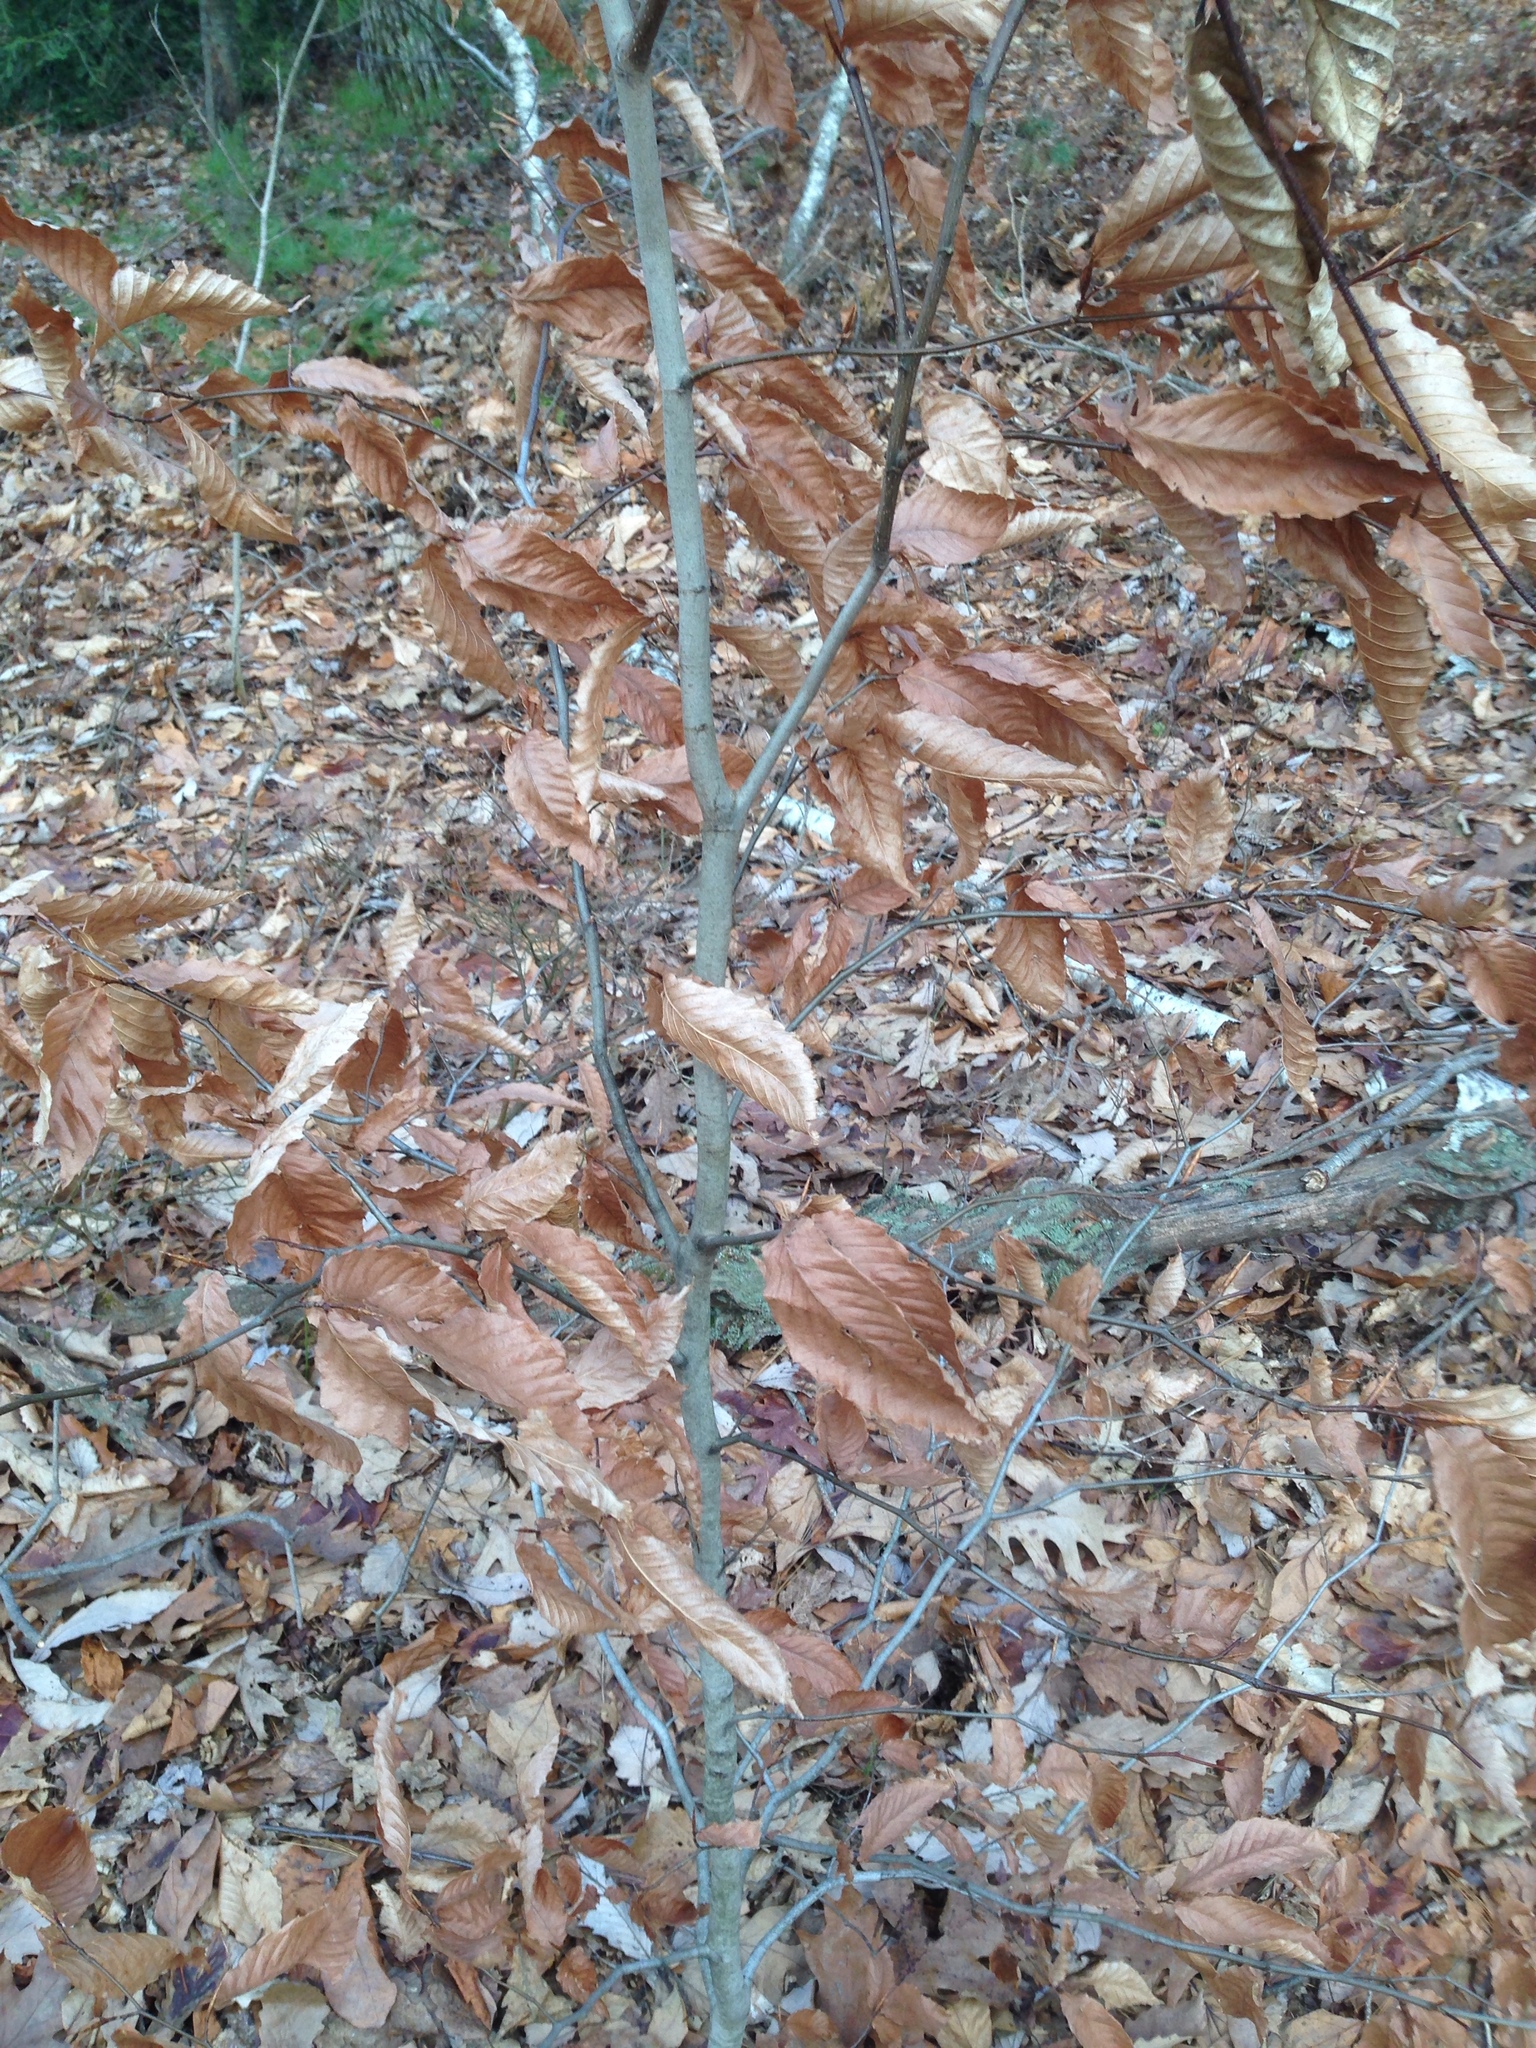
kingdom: Plantae
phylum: Tracheophyta
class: Magnoliopsida
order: Fagales
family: Fagaceae
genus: Fagus
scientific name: Fagus grandifolia
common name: American beech
